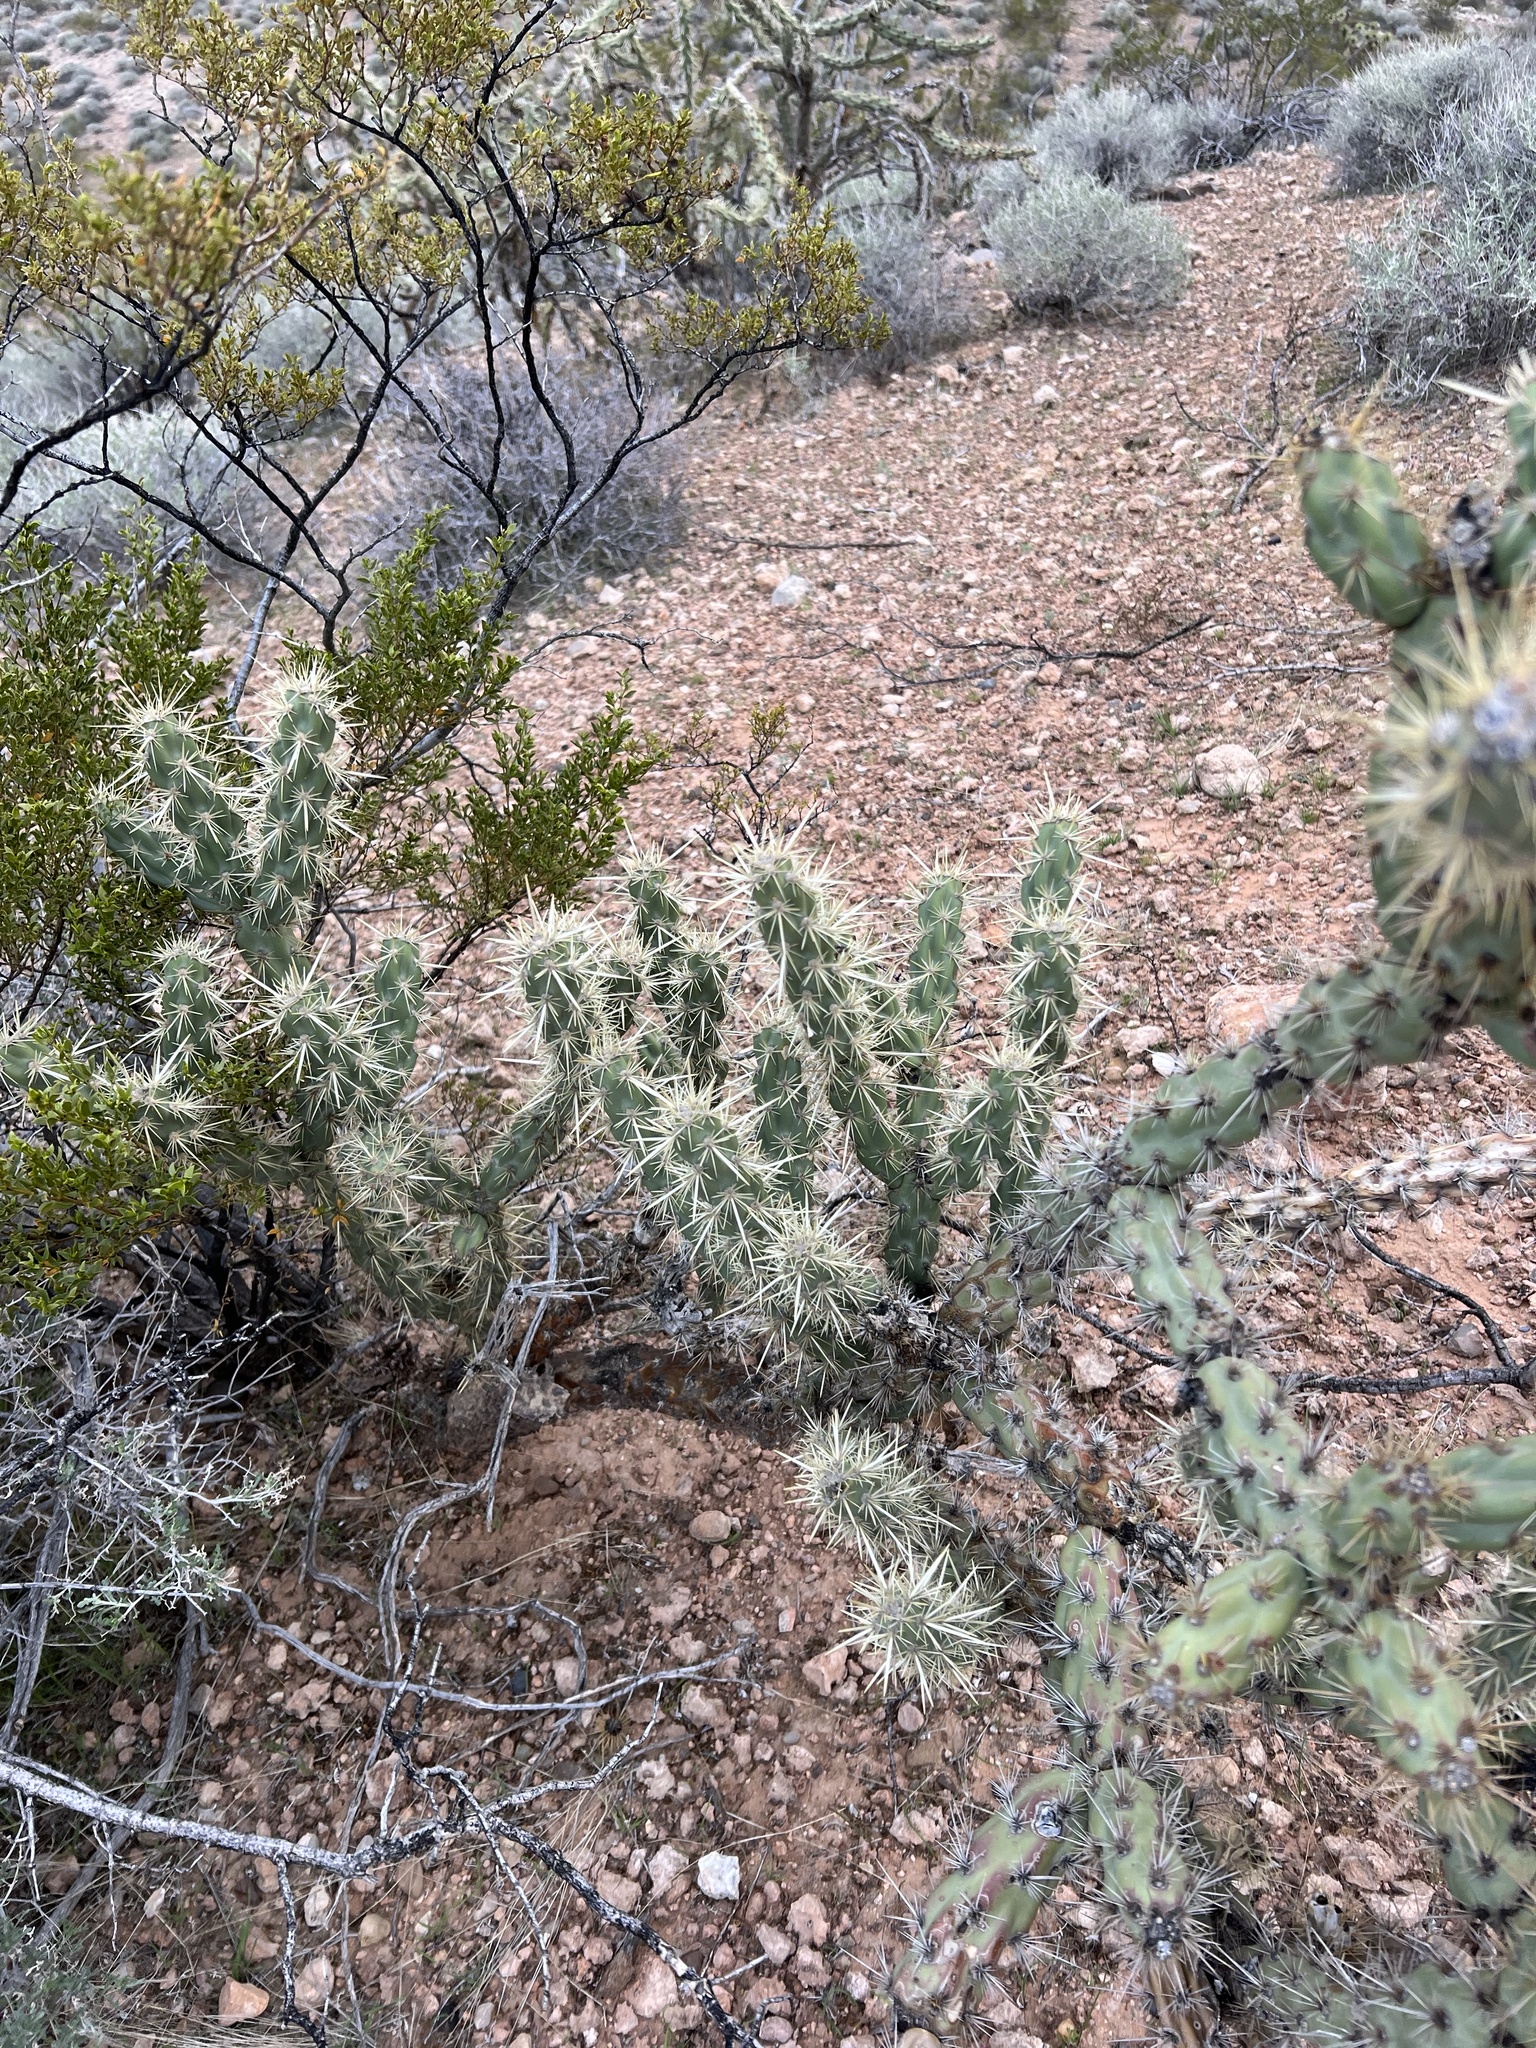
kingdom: Plantae
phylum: Tracheophyta
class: Magnoliopsida
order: Caryophyllales
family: Cactaceae
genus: Cylindropuntia
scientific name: Cylindropuntia acanthocarpa
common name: Buckhorn cholla
